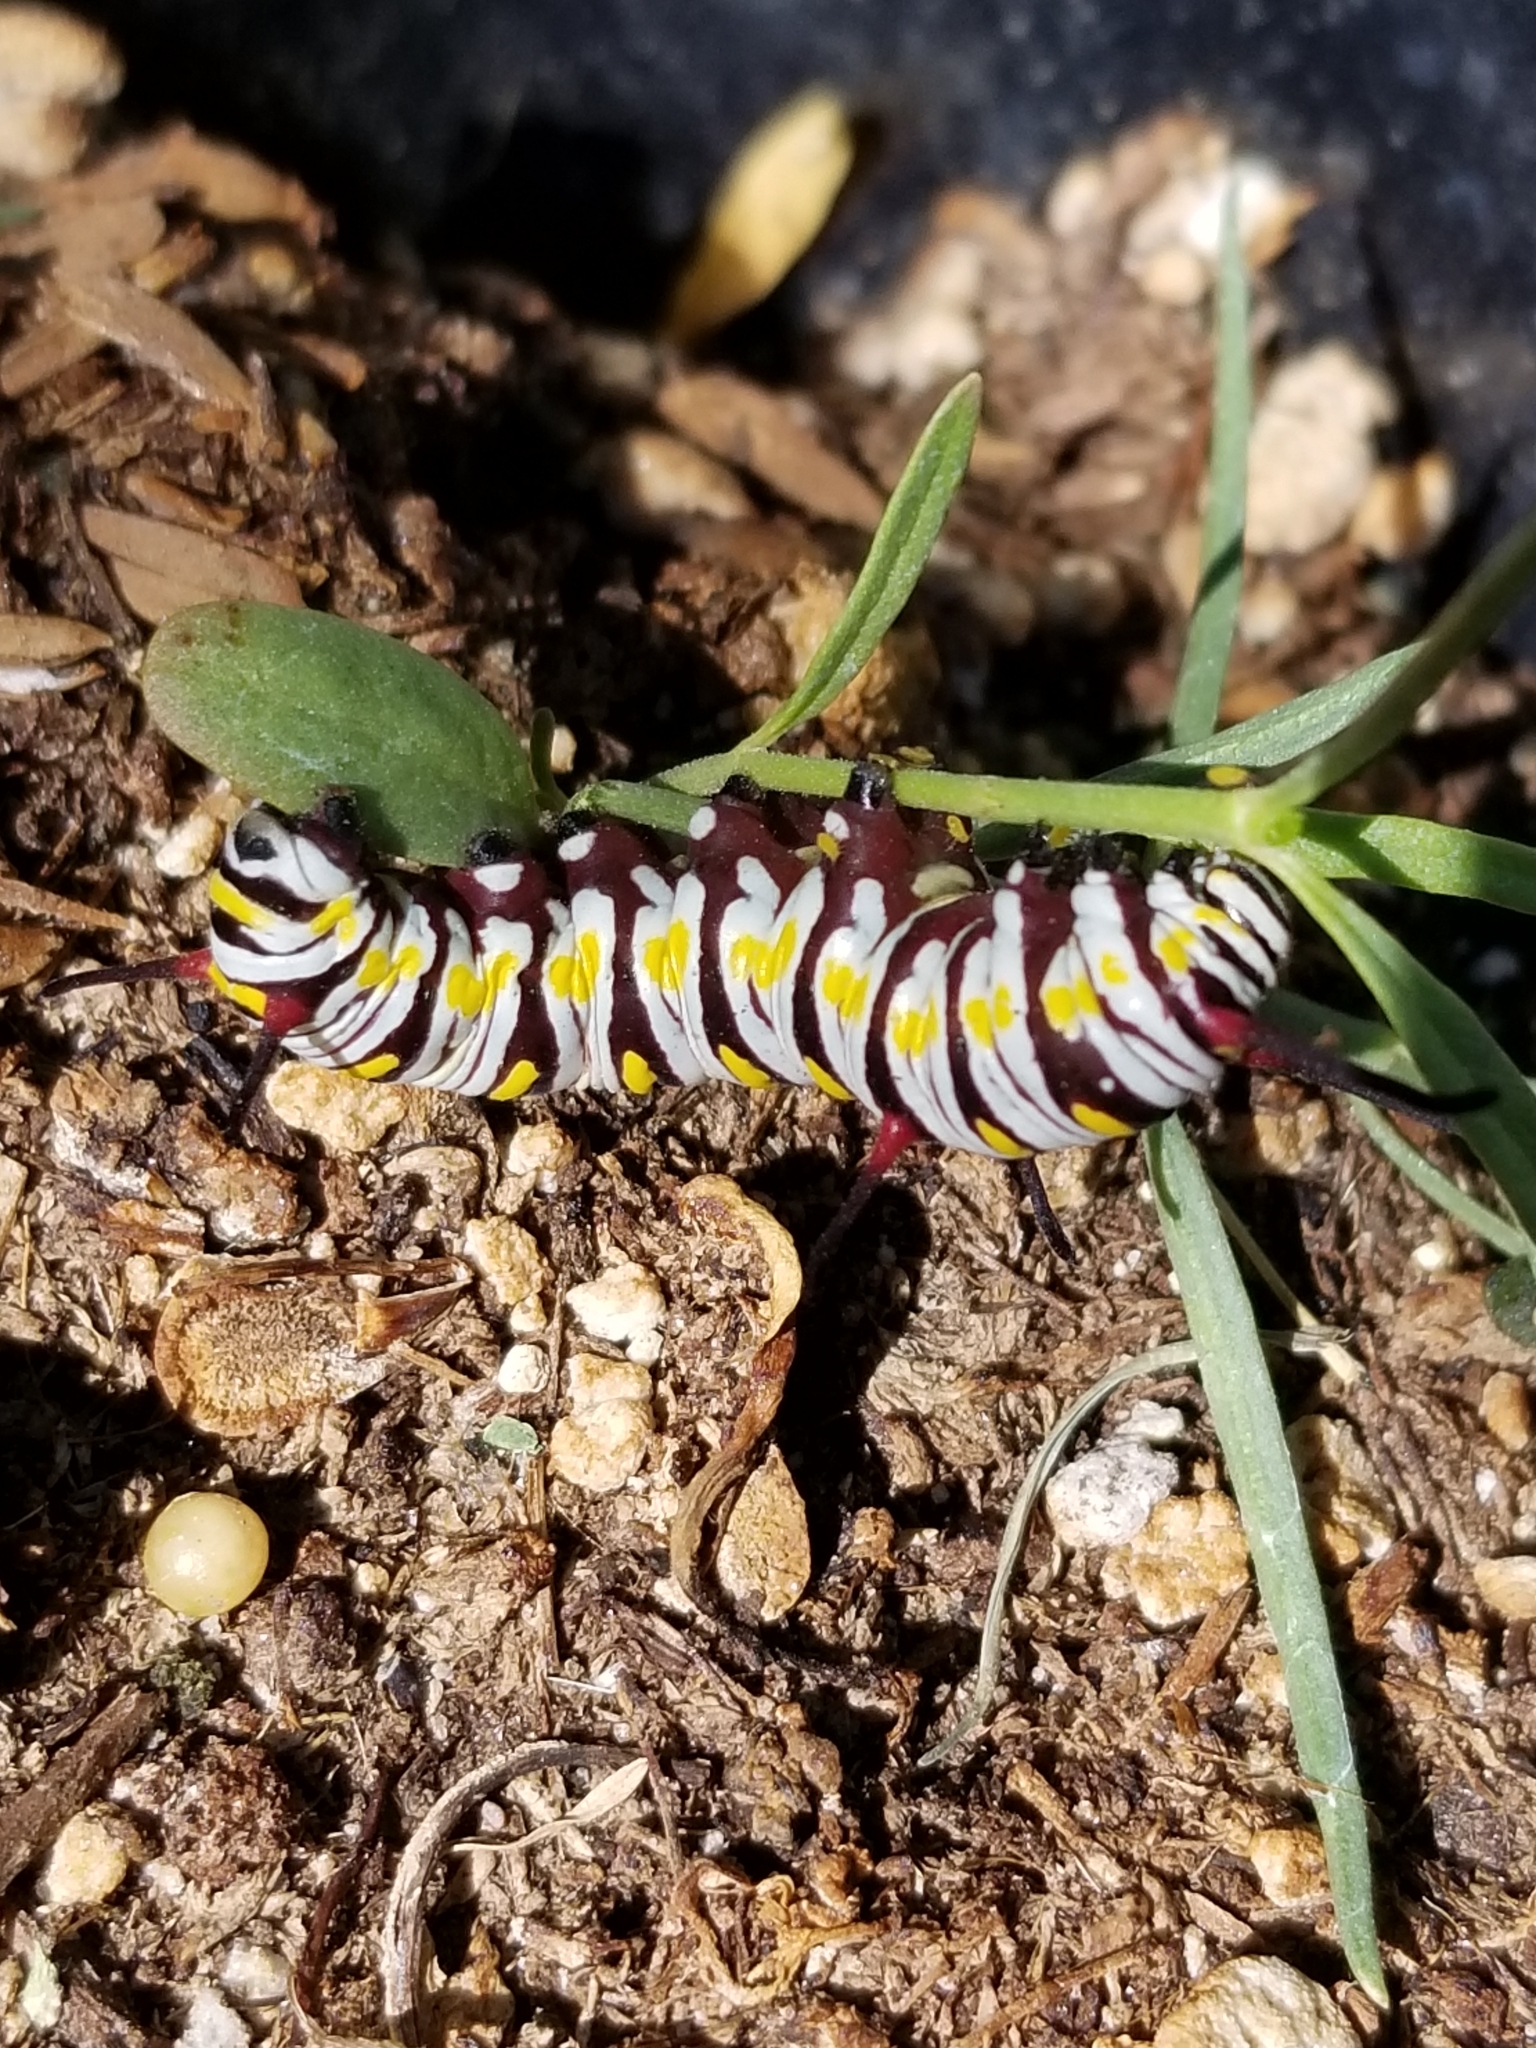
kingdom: Animalia
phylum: Arthropoda
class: Insecta
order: Lepidoptera
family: Nymphalidae
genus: Danaus
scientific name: Danaus gilippus
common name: Queen
